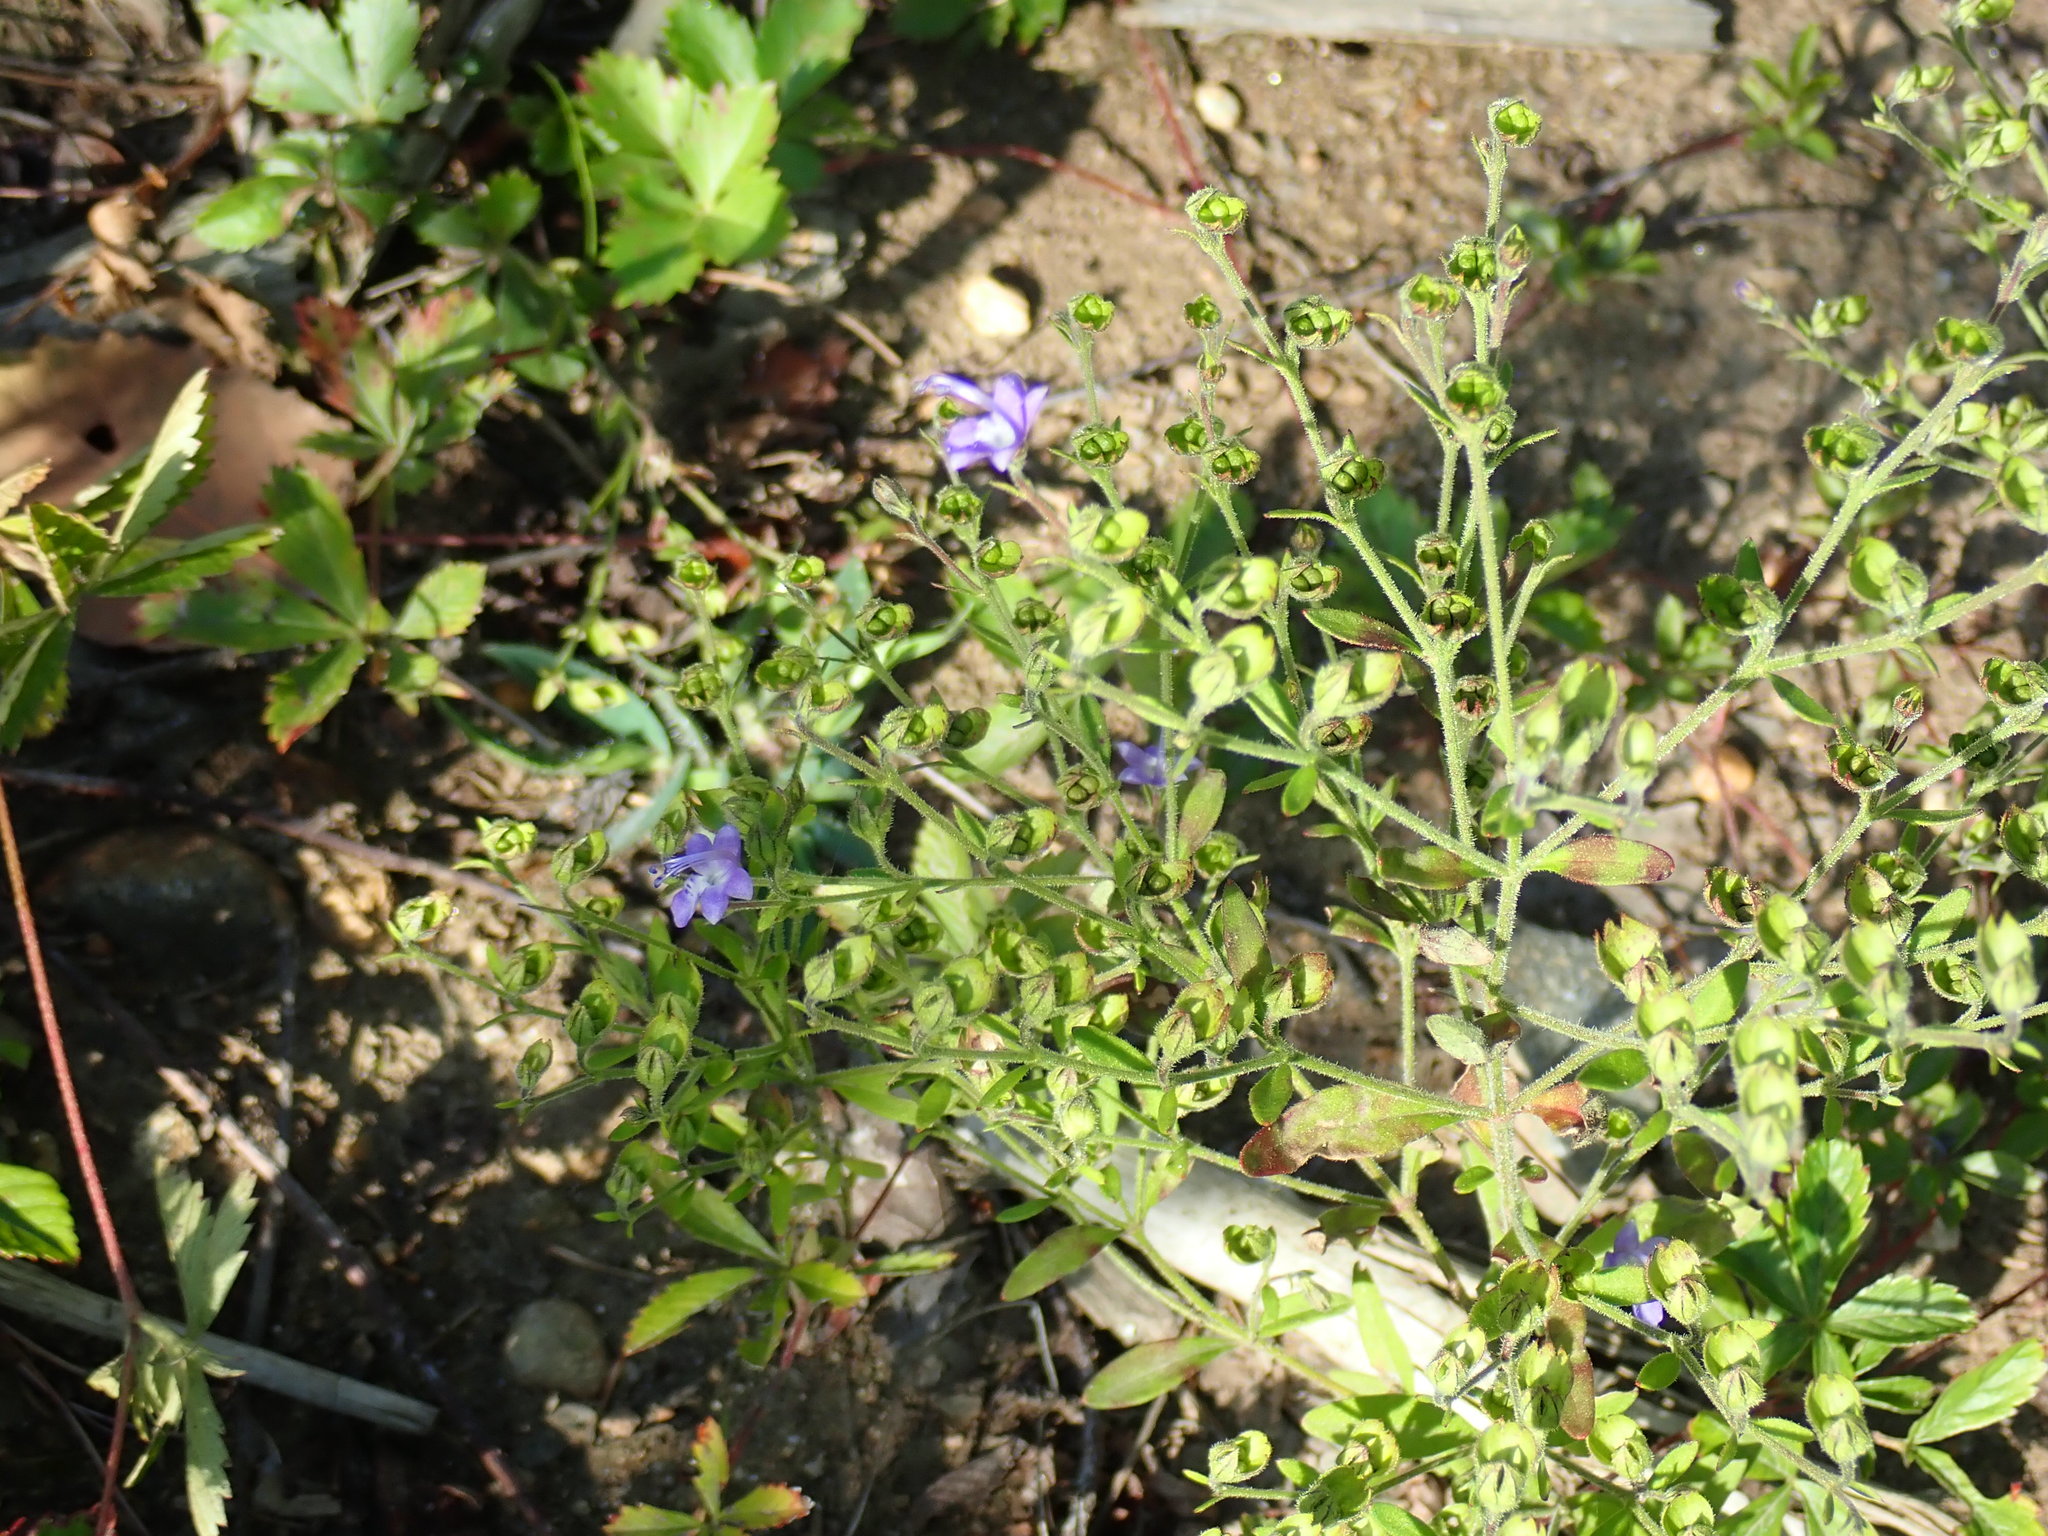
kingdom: Plantae
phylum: Tracheophyta
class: Magnoliopsida
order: Lamiales
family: Lamiaceae
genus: Trichostema
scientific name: Trichostema dichotomum
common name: Bastard pennyroyal
